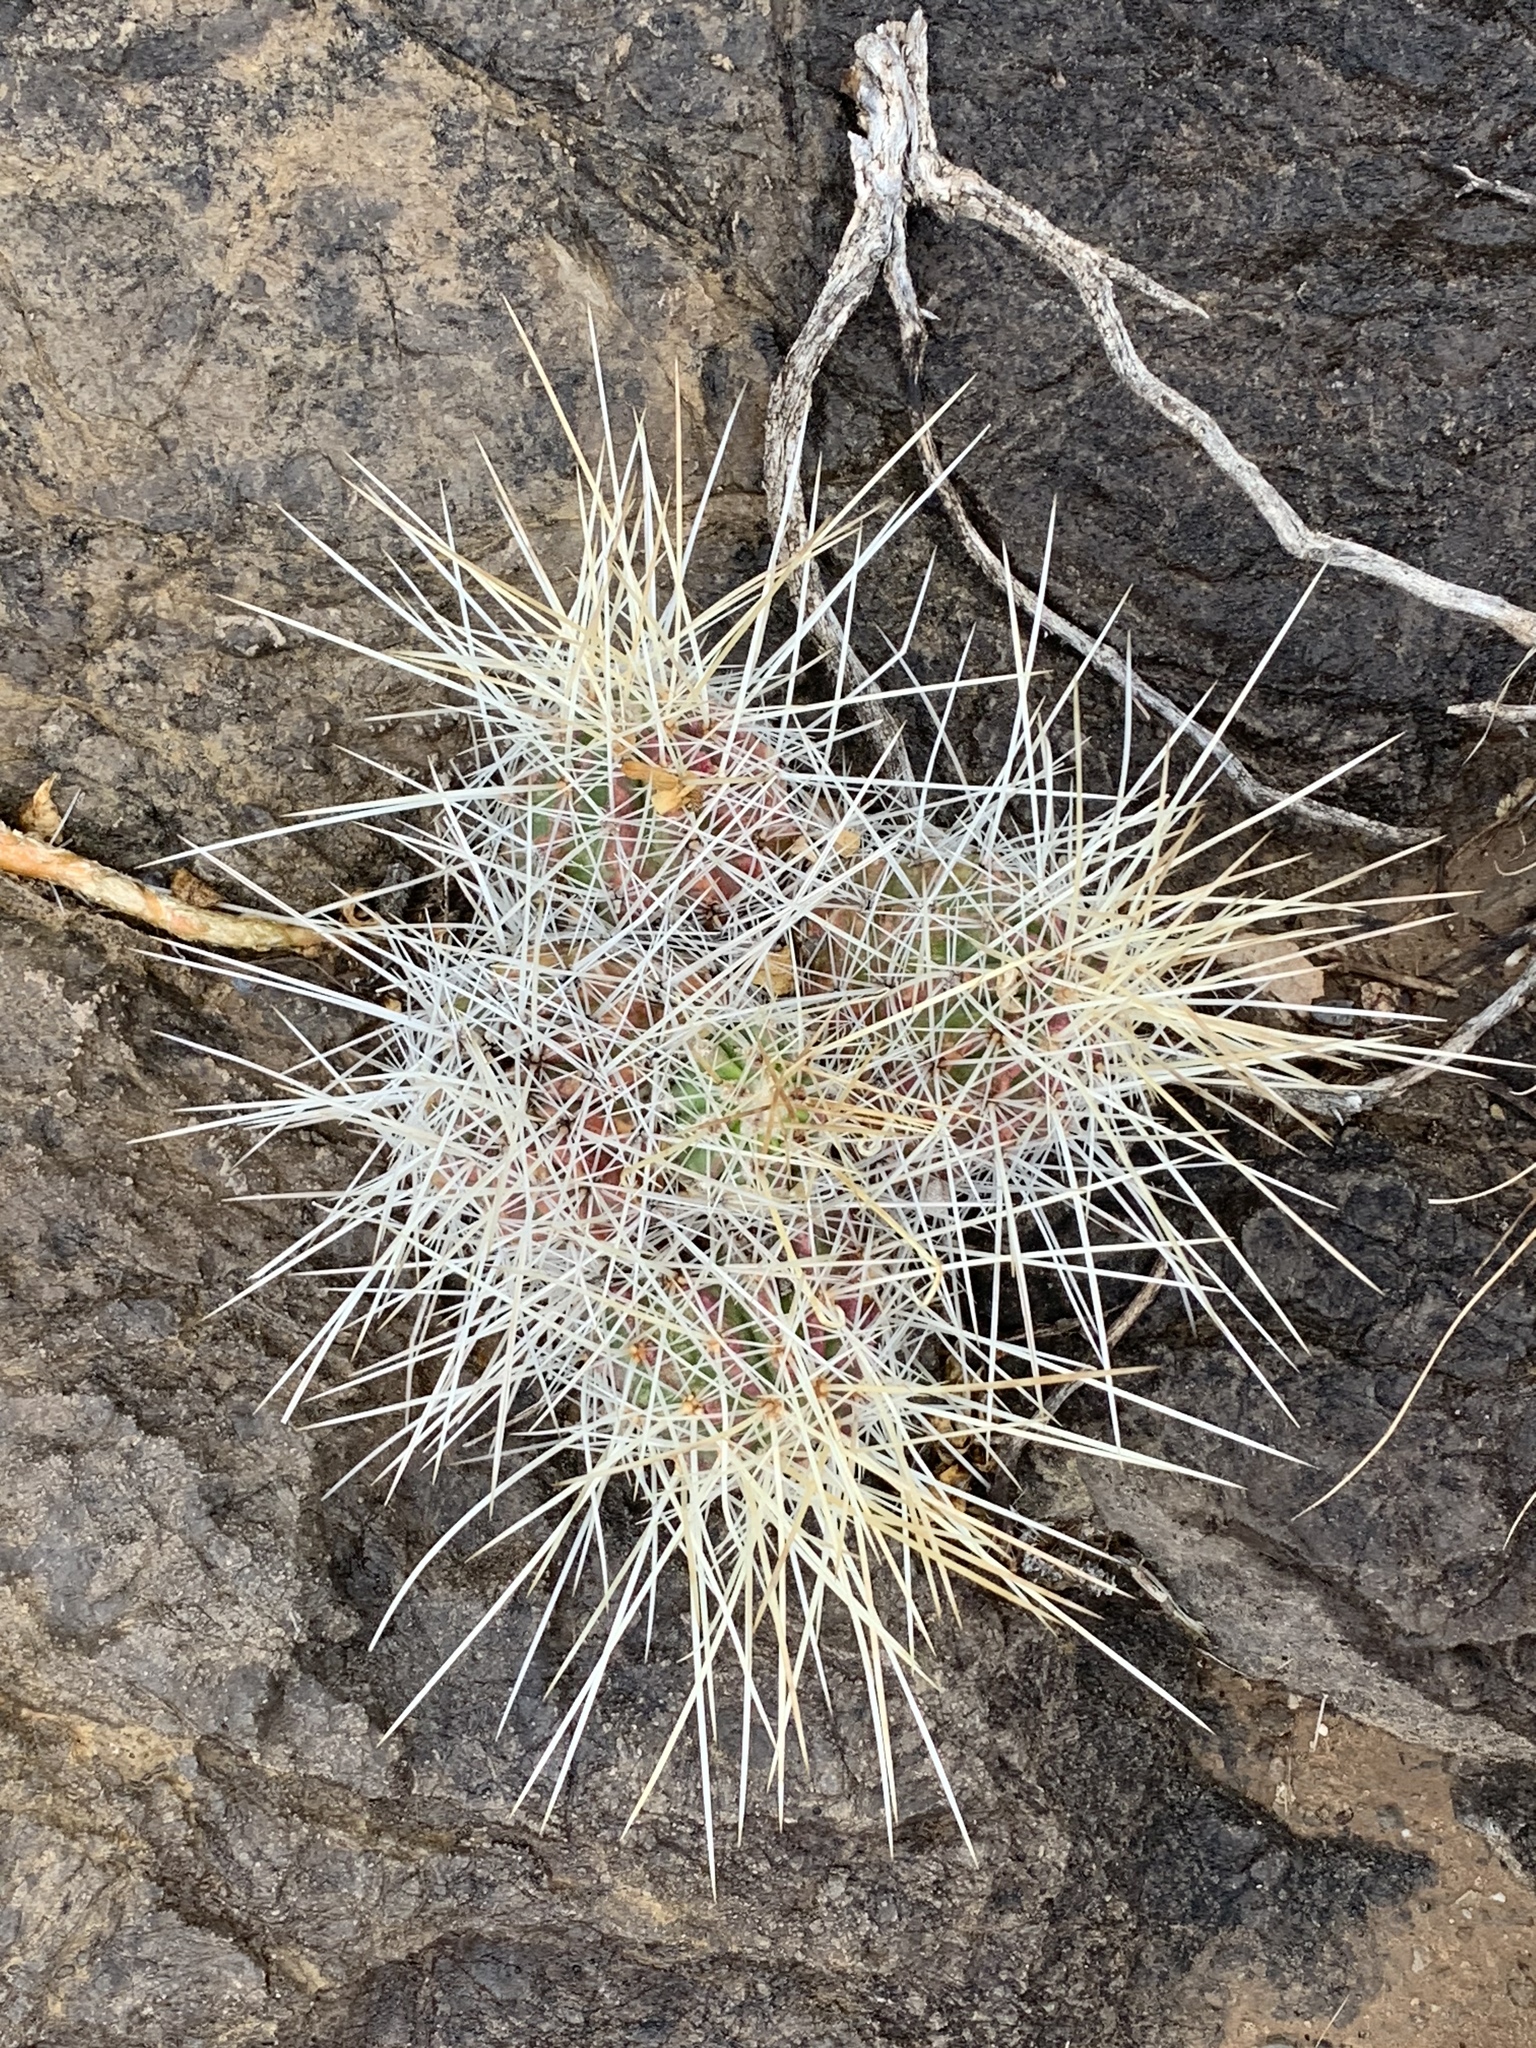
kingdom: Plantae
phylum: Tracheophyta
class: Magnoliopsida
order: Caryophyllales
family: Cactaceae
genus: Echinocereus
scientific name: Echinocereus stramineus
